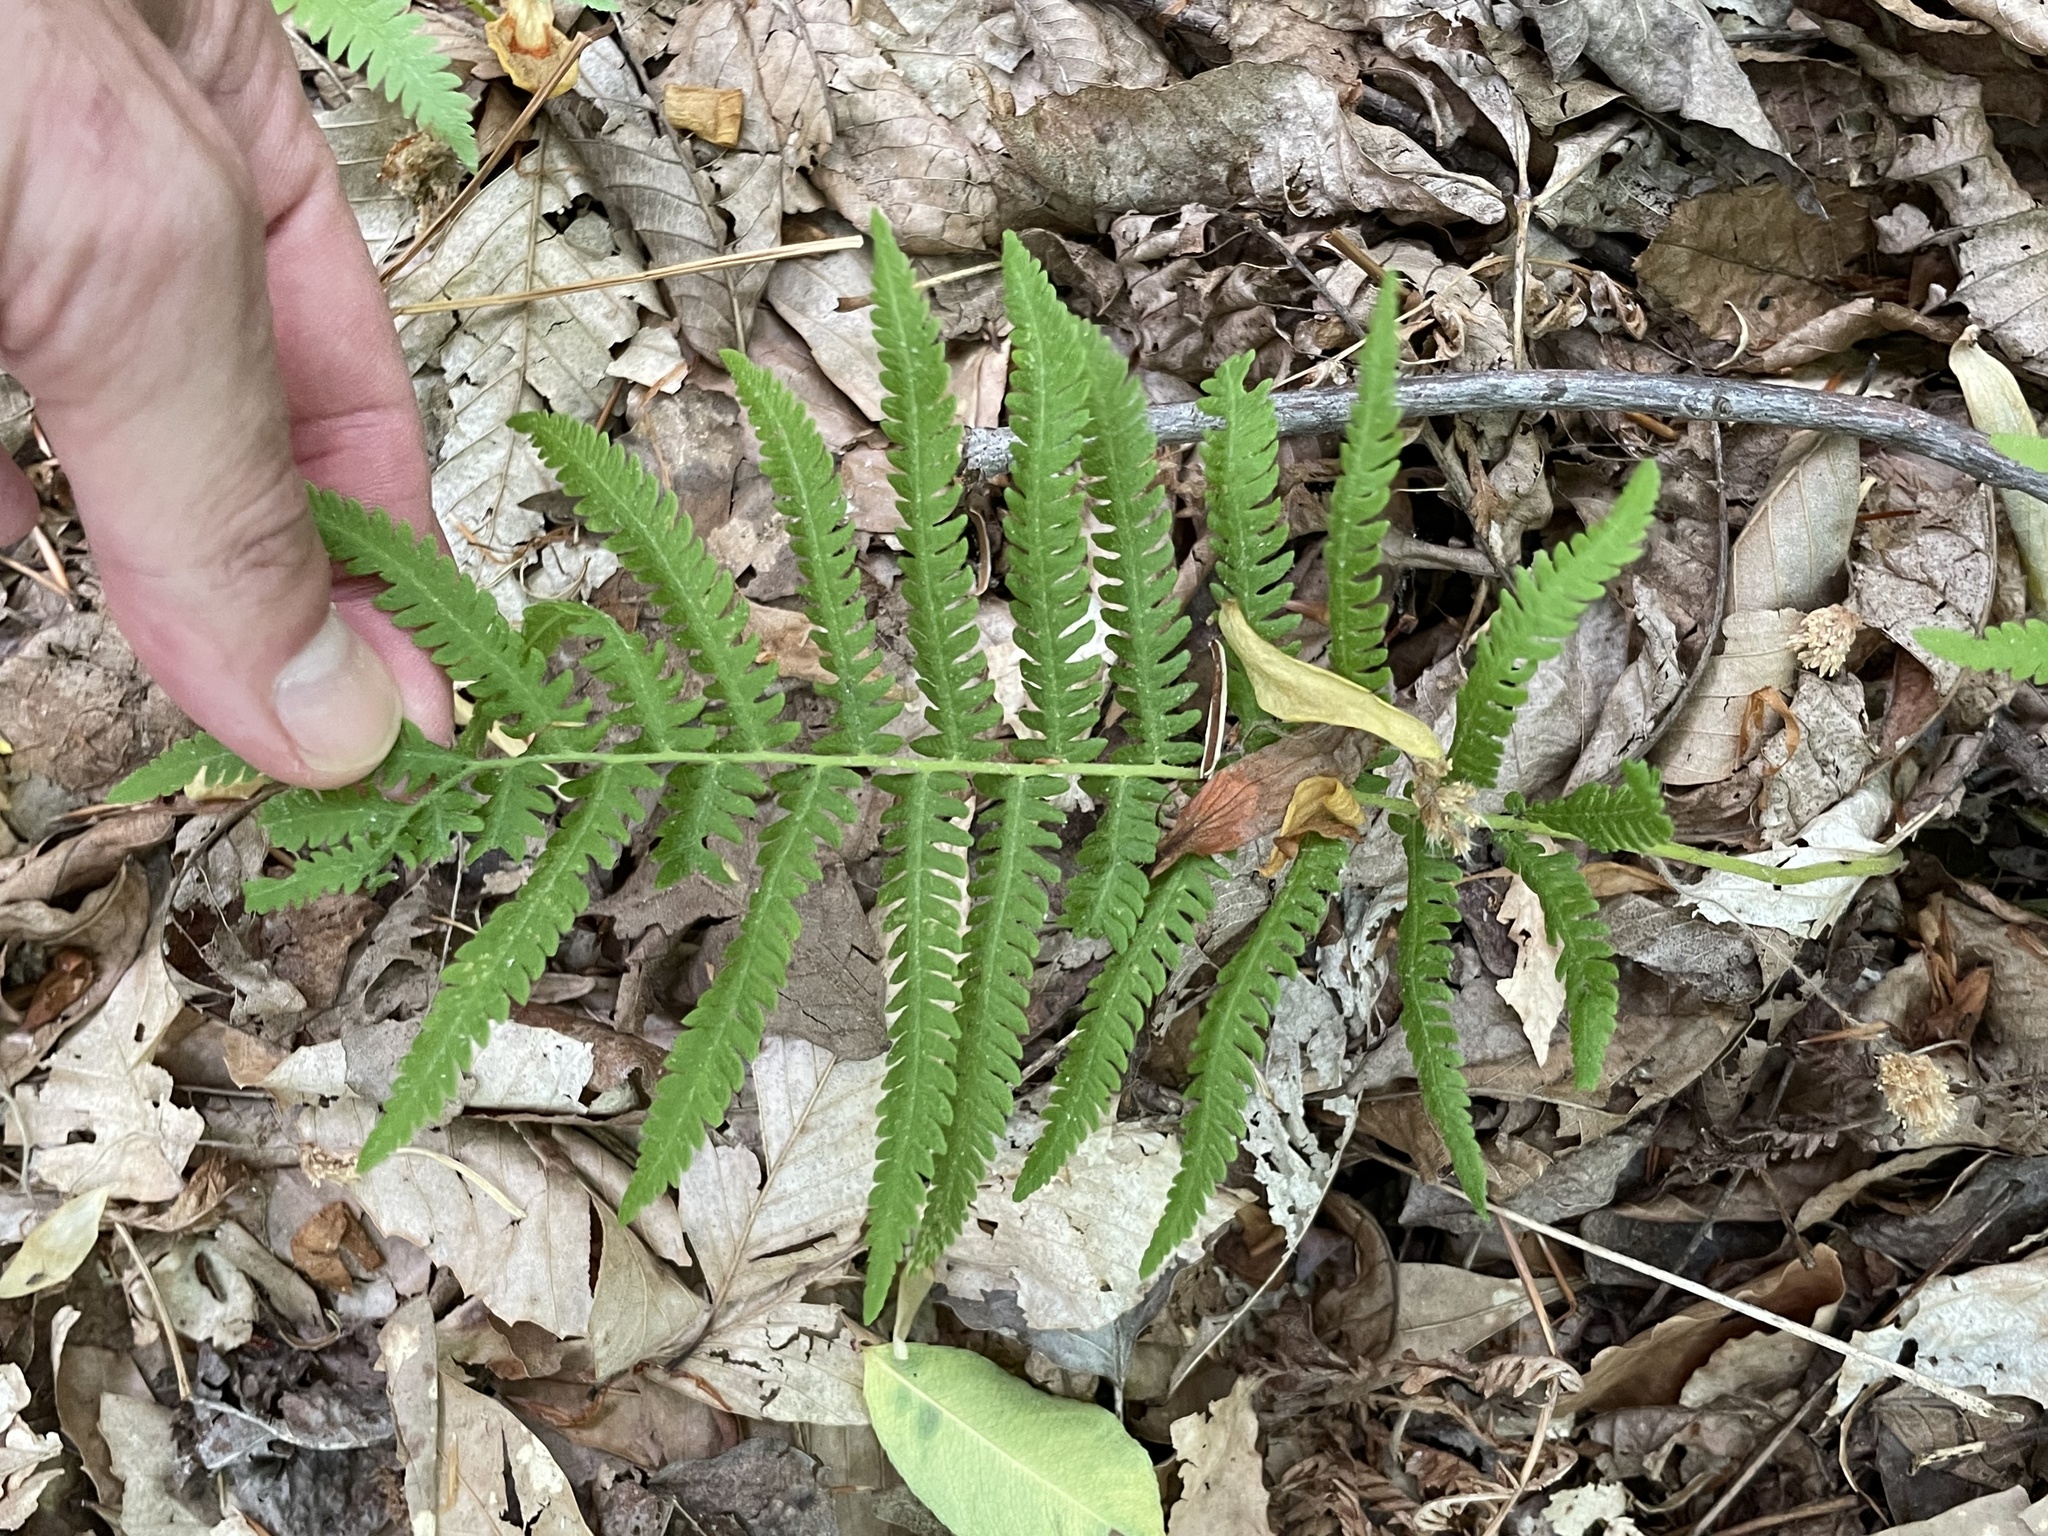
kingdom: Plantae
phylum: Tracheophyta
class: Polypodiopsida
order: Polypodiales
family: Thelypteridaceae
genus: Pelazoneuron
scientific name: Pelazoneuron kunthii
